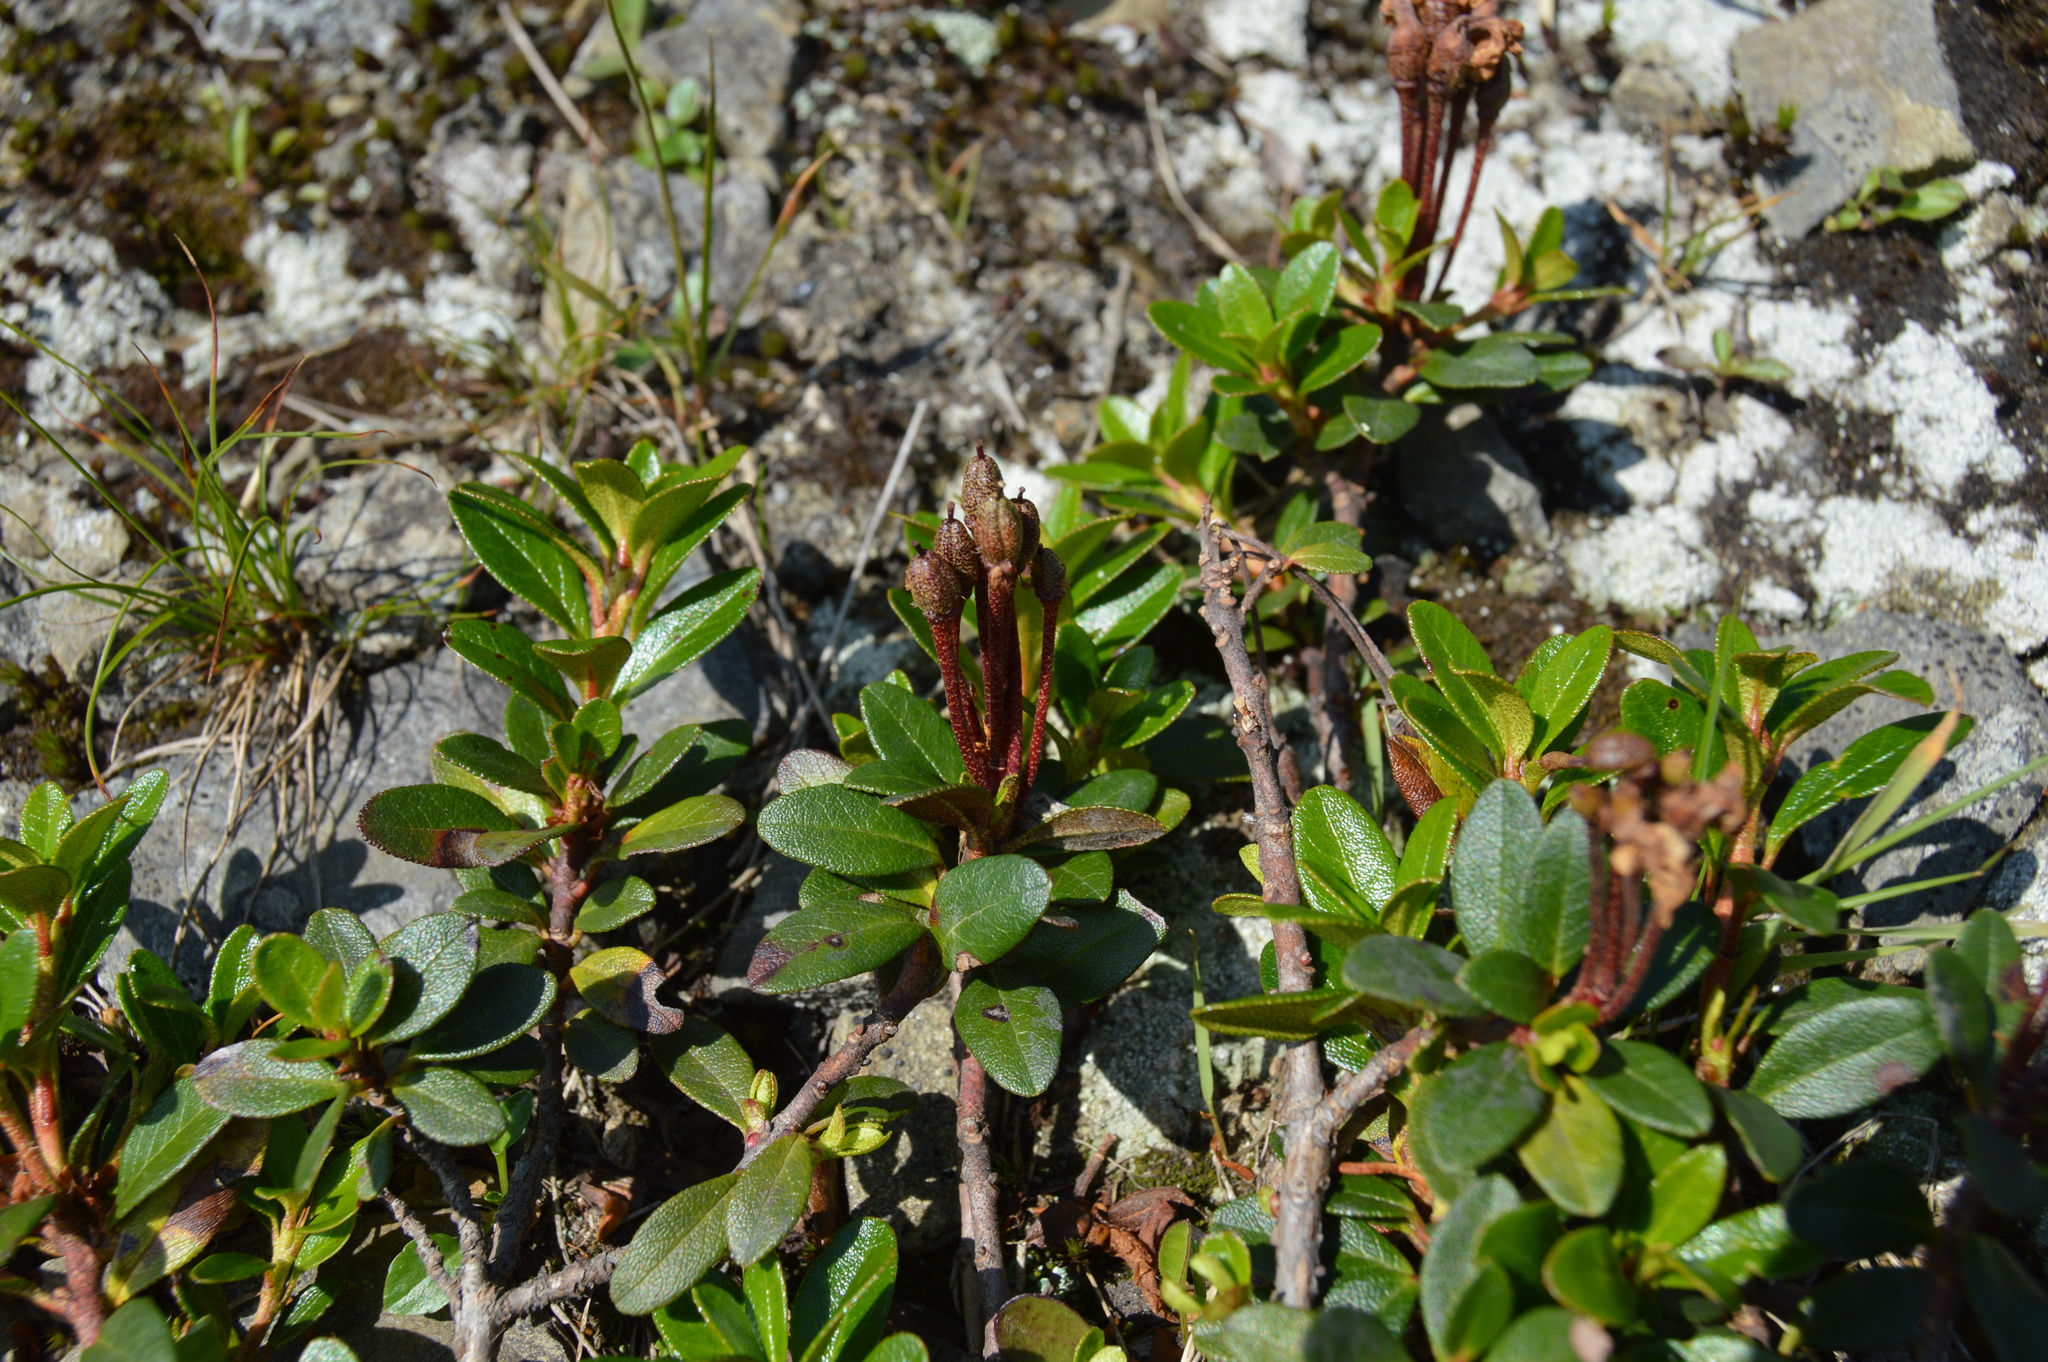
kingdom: Plantae
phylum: Tracheophyta
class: Magnoliopsida
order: Ericales
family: Ericaceae
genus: Rhododendron
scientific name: Rhododendron kotschyi
